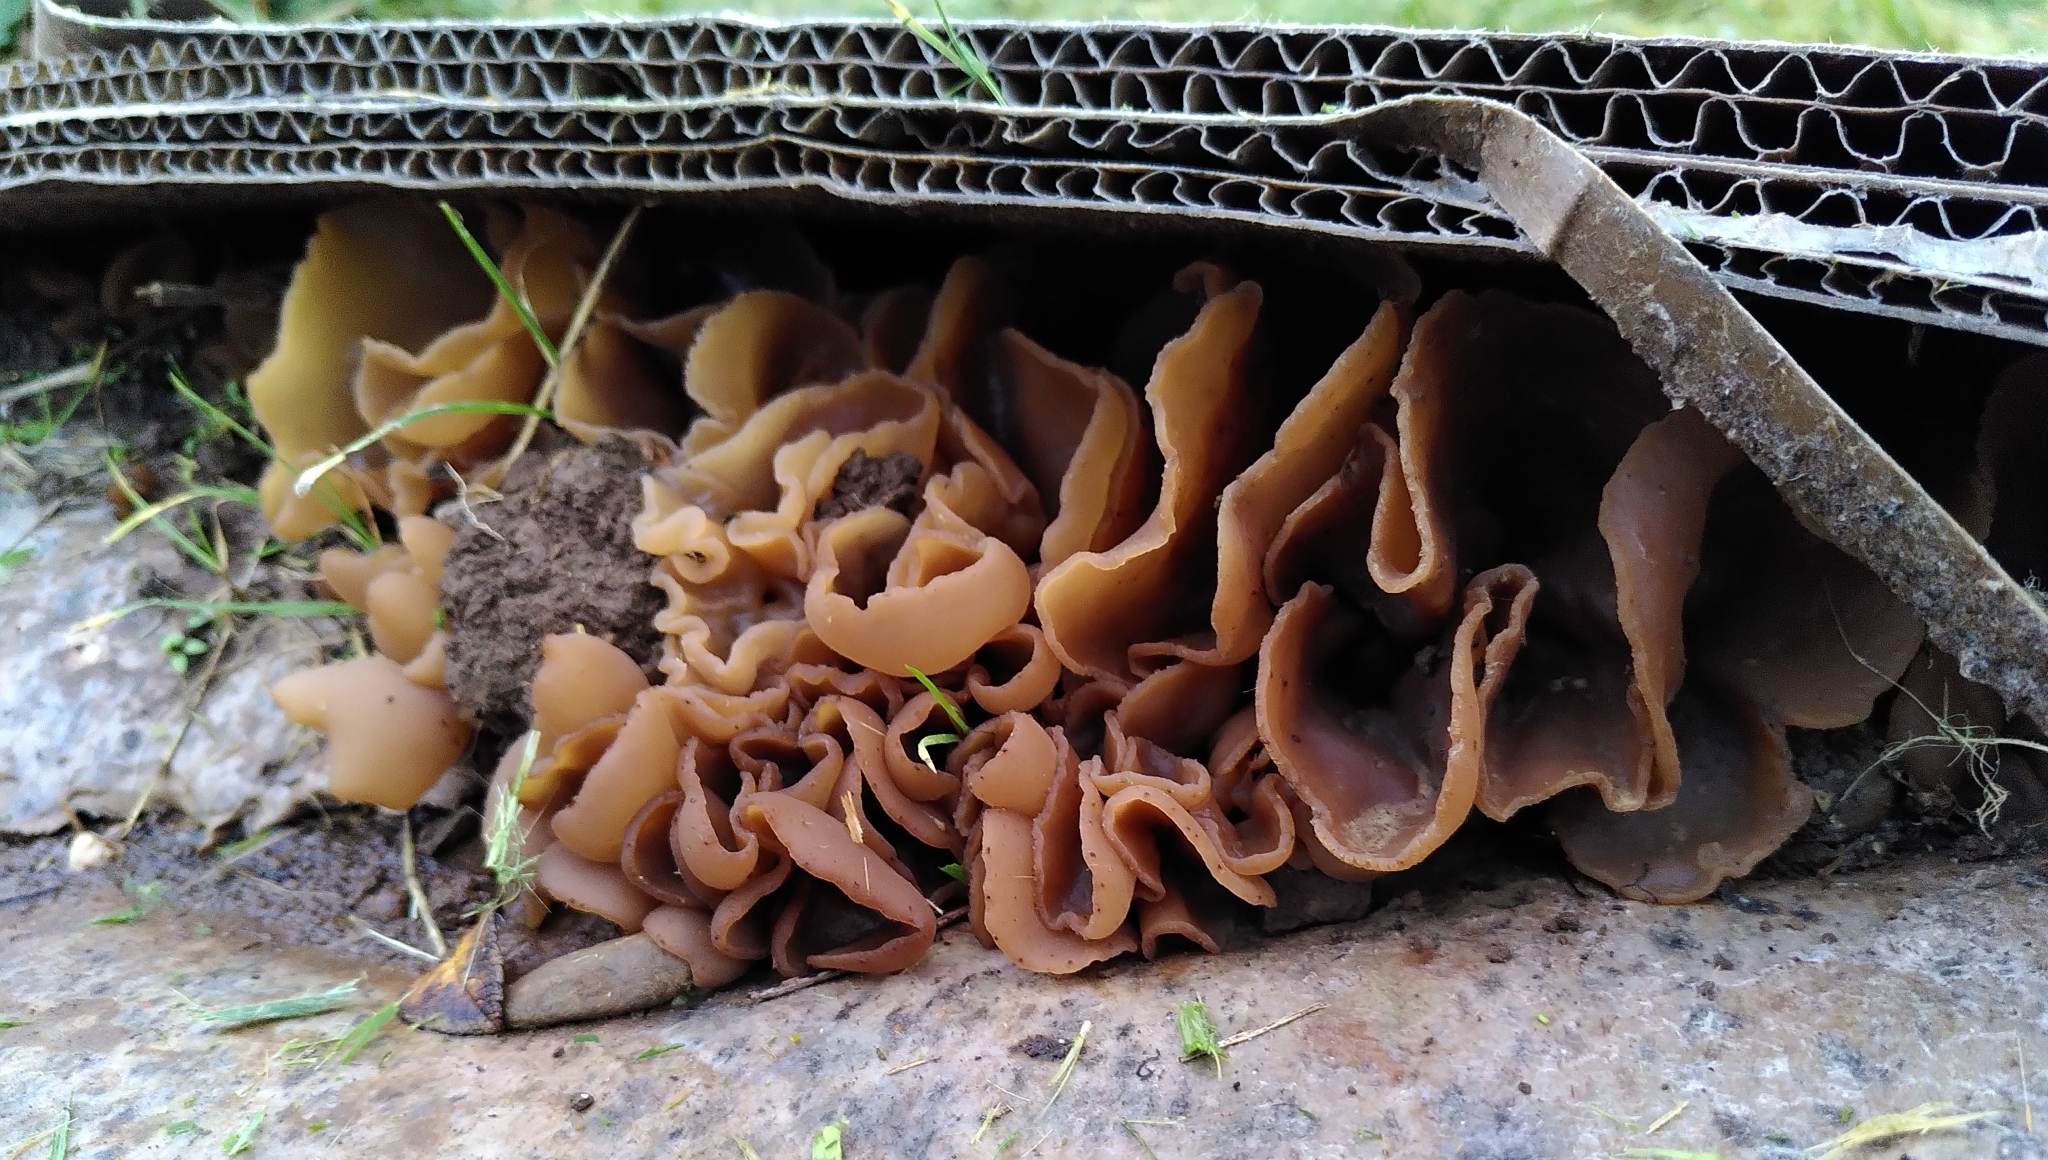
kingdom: Fungi
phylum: Ascomycota
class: Pezizomycetes
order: Pezizales
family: Pezizaceae
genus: Peziza
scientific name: Peziza varia
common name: Layered cup
